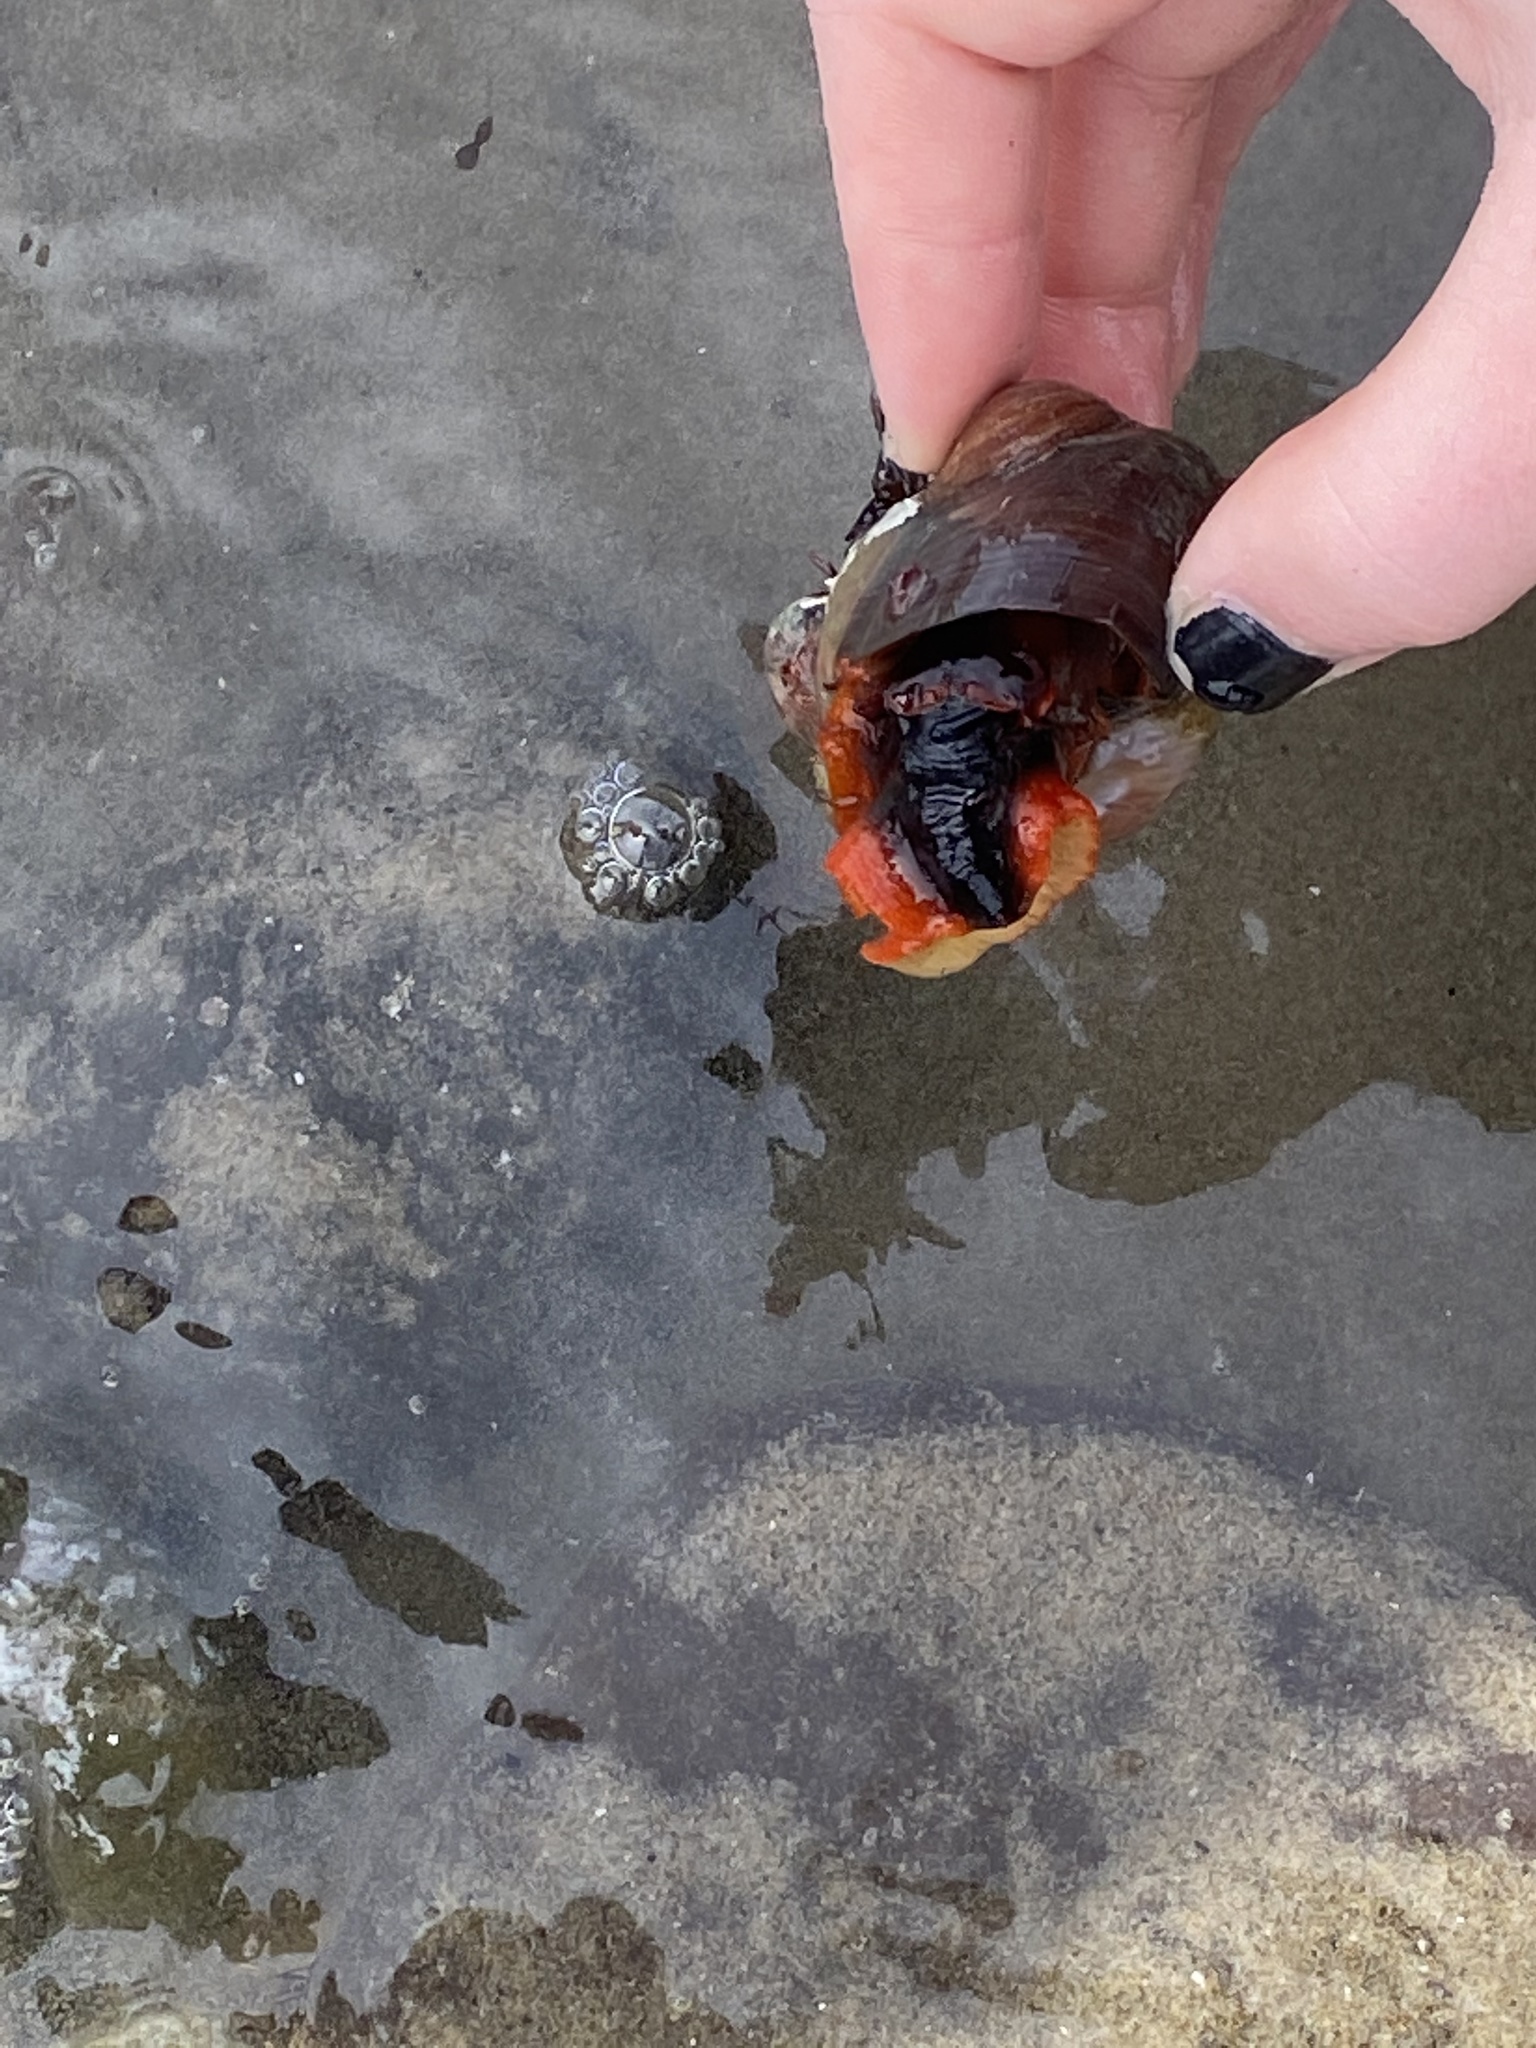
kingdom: Animalia
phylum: Mollusca
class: Gastropoda
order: Trochida
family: Tegulidae
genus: Norrisia
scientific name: Norrisia norrisii
